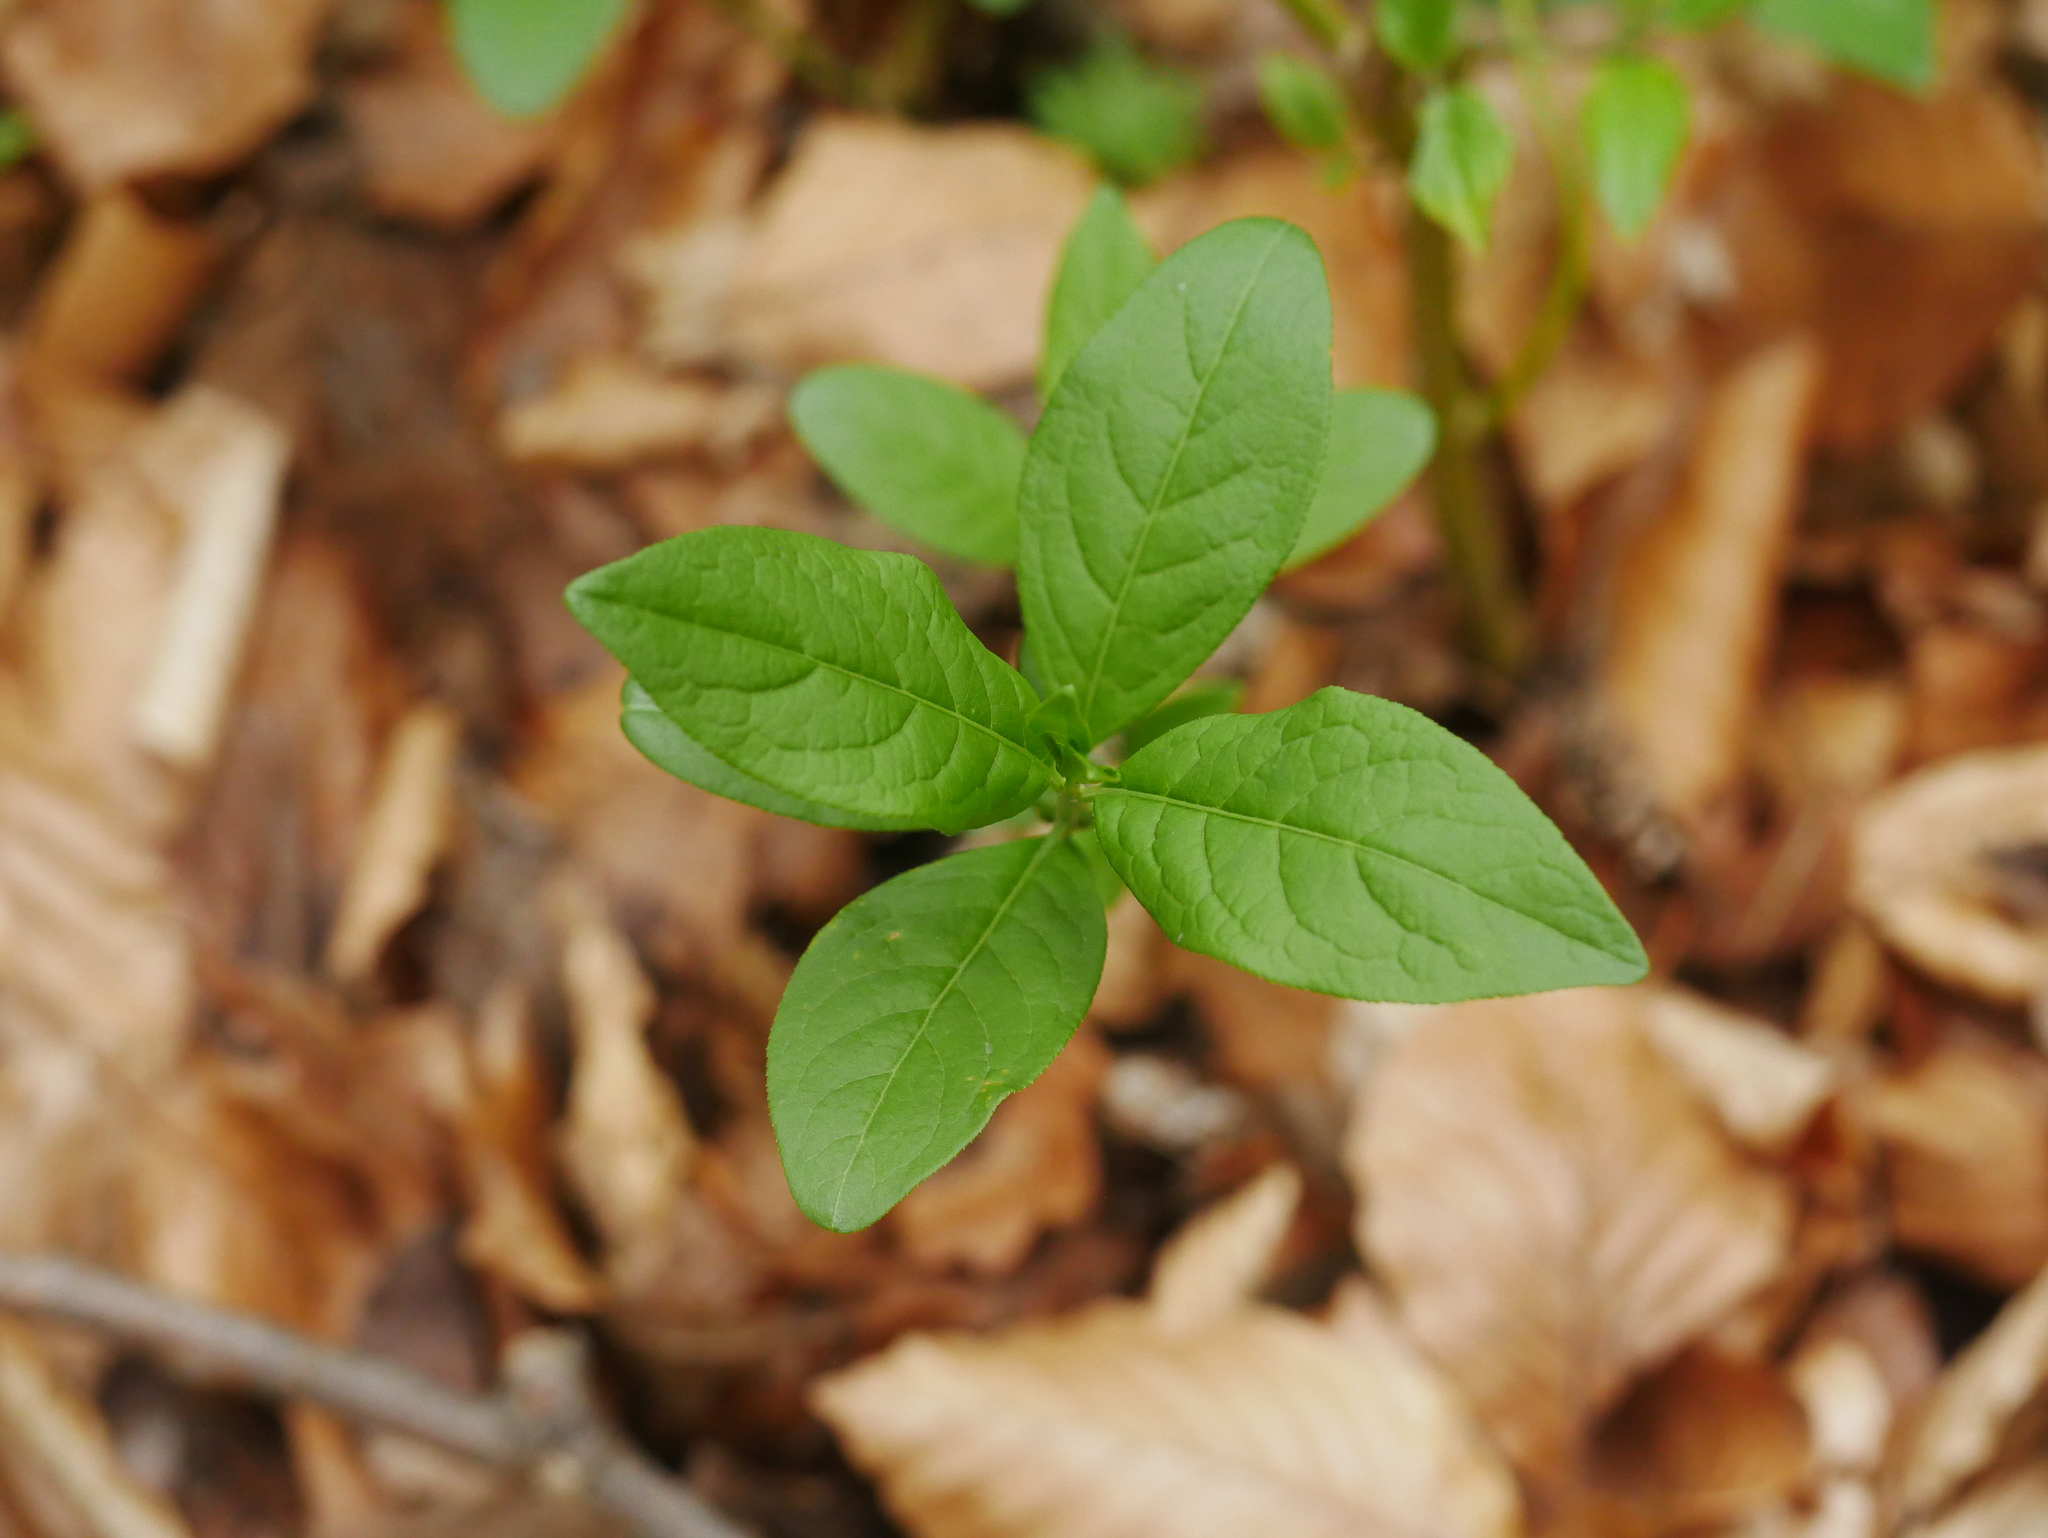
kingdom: Plantae
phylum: Tracheophyta
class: Magnoliopsida
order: Celastrales
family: Celastraceae
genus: Euonymus
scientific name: Euonymus europaeus
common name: Spindle
